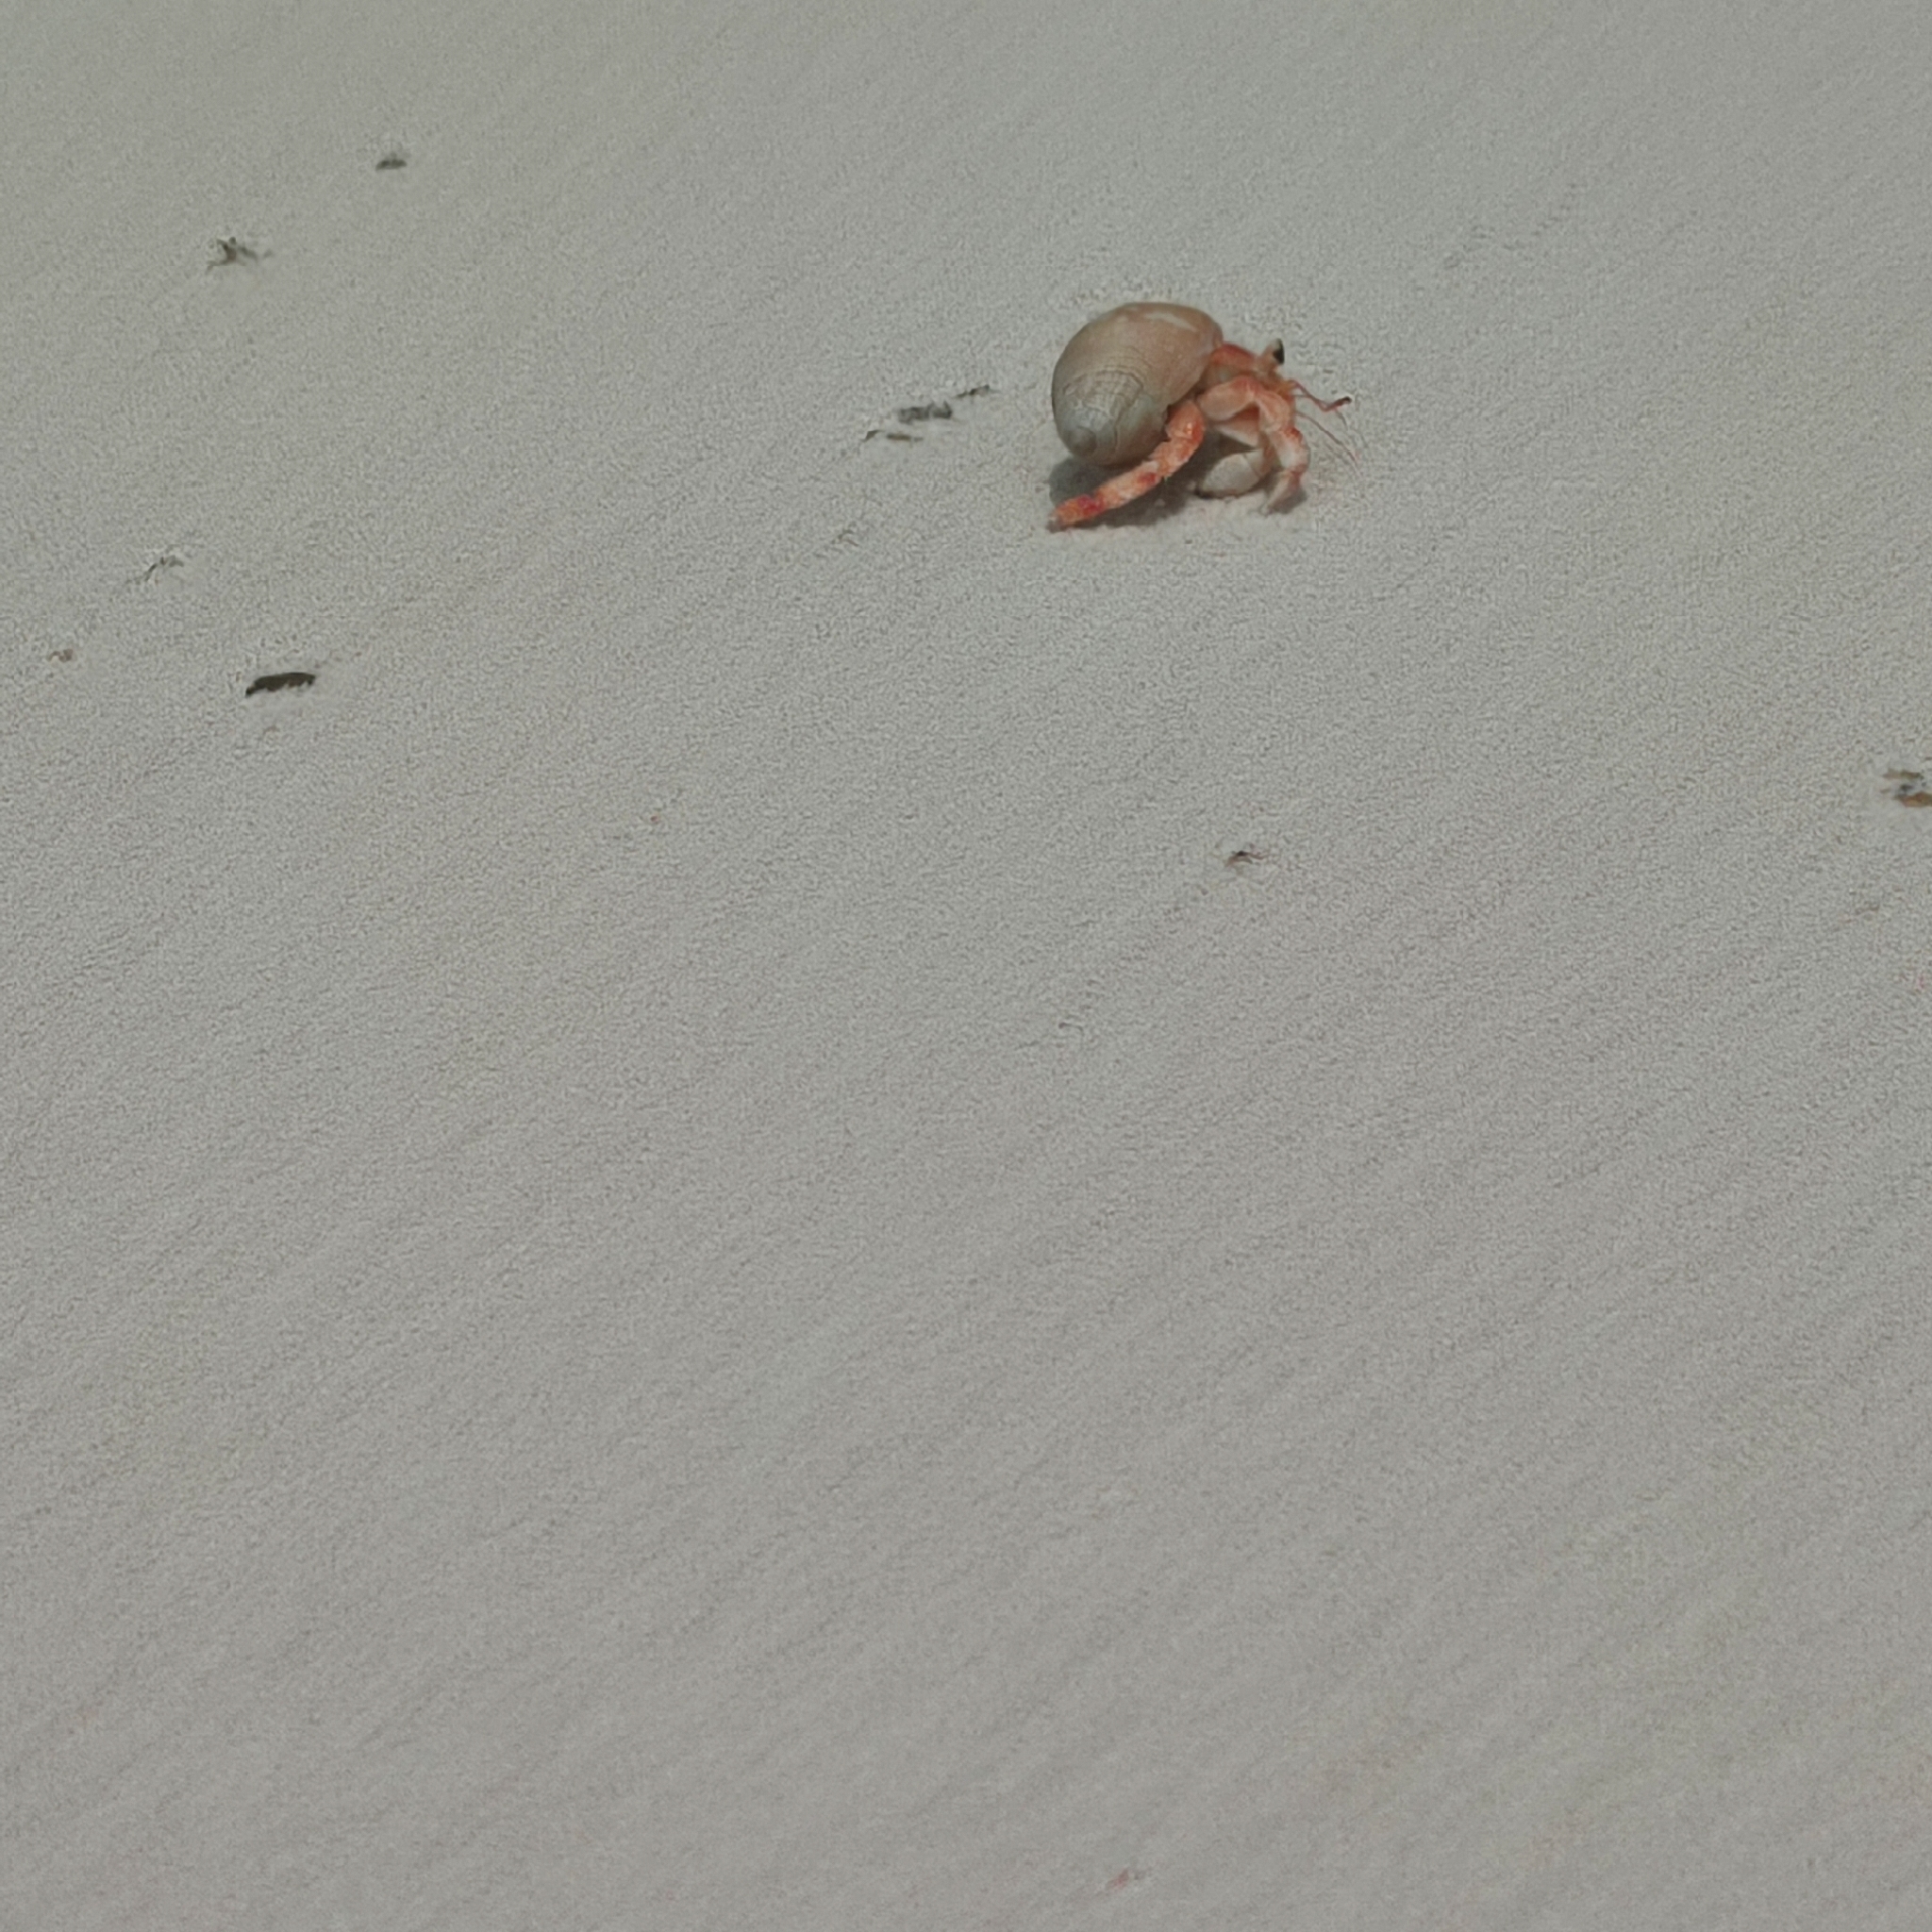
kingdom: Animalia
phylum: Arthropoda
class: Malacostraca
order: Decapoda
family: Coenobitidae
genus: Coenobita
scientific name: Coenobita perlatus
